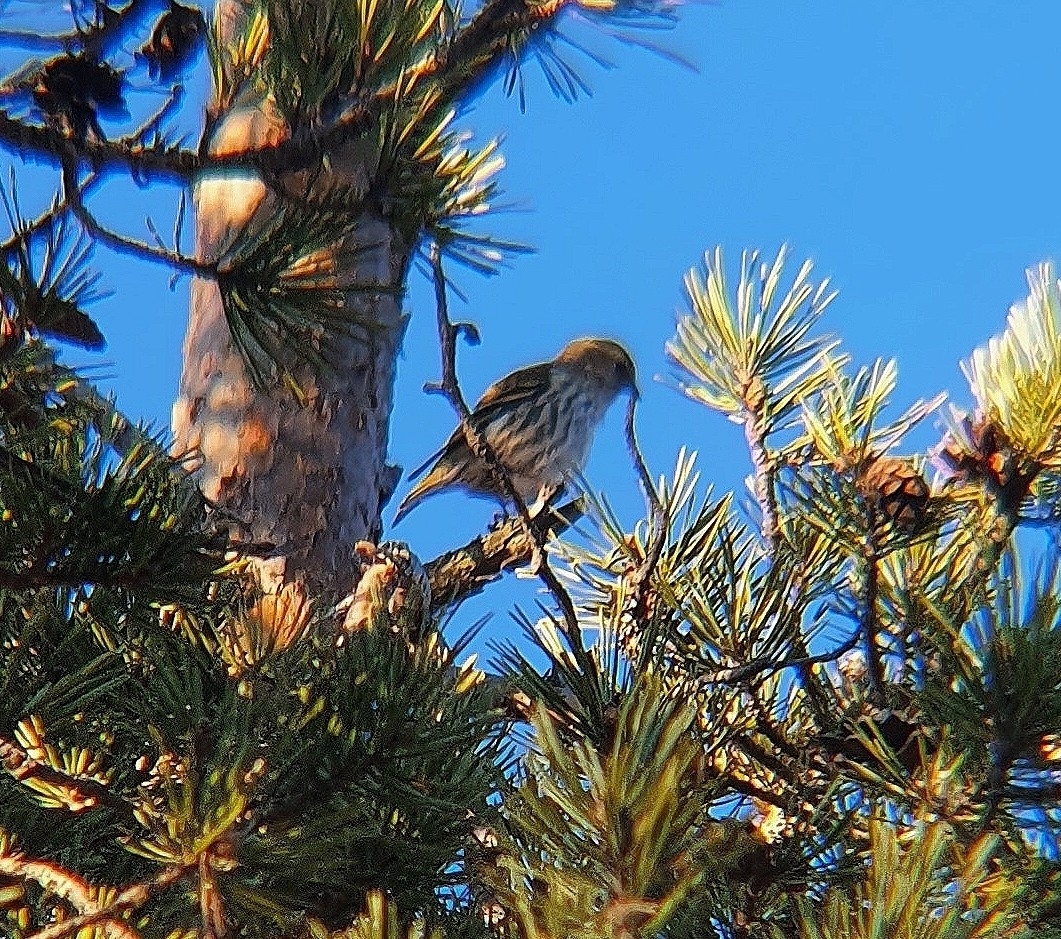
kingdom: Animalia
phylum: Chordata
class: Aves
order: Passeriformes
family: Fringillidae
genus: Spinus
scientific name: Spinus spinus
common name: Eurasian siskin
